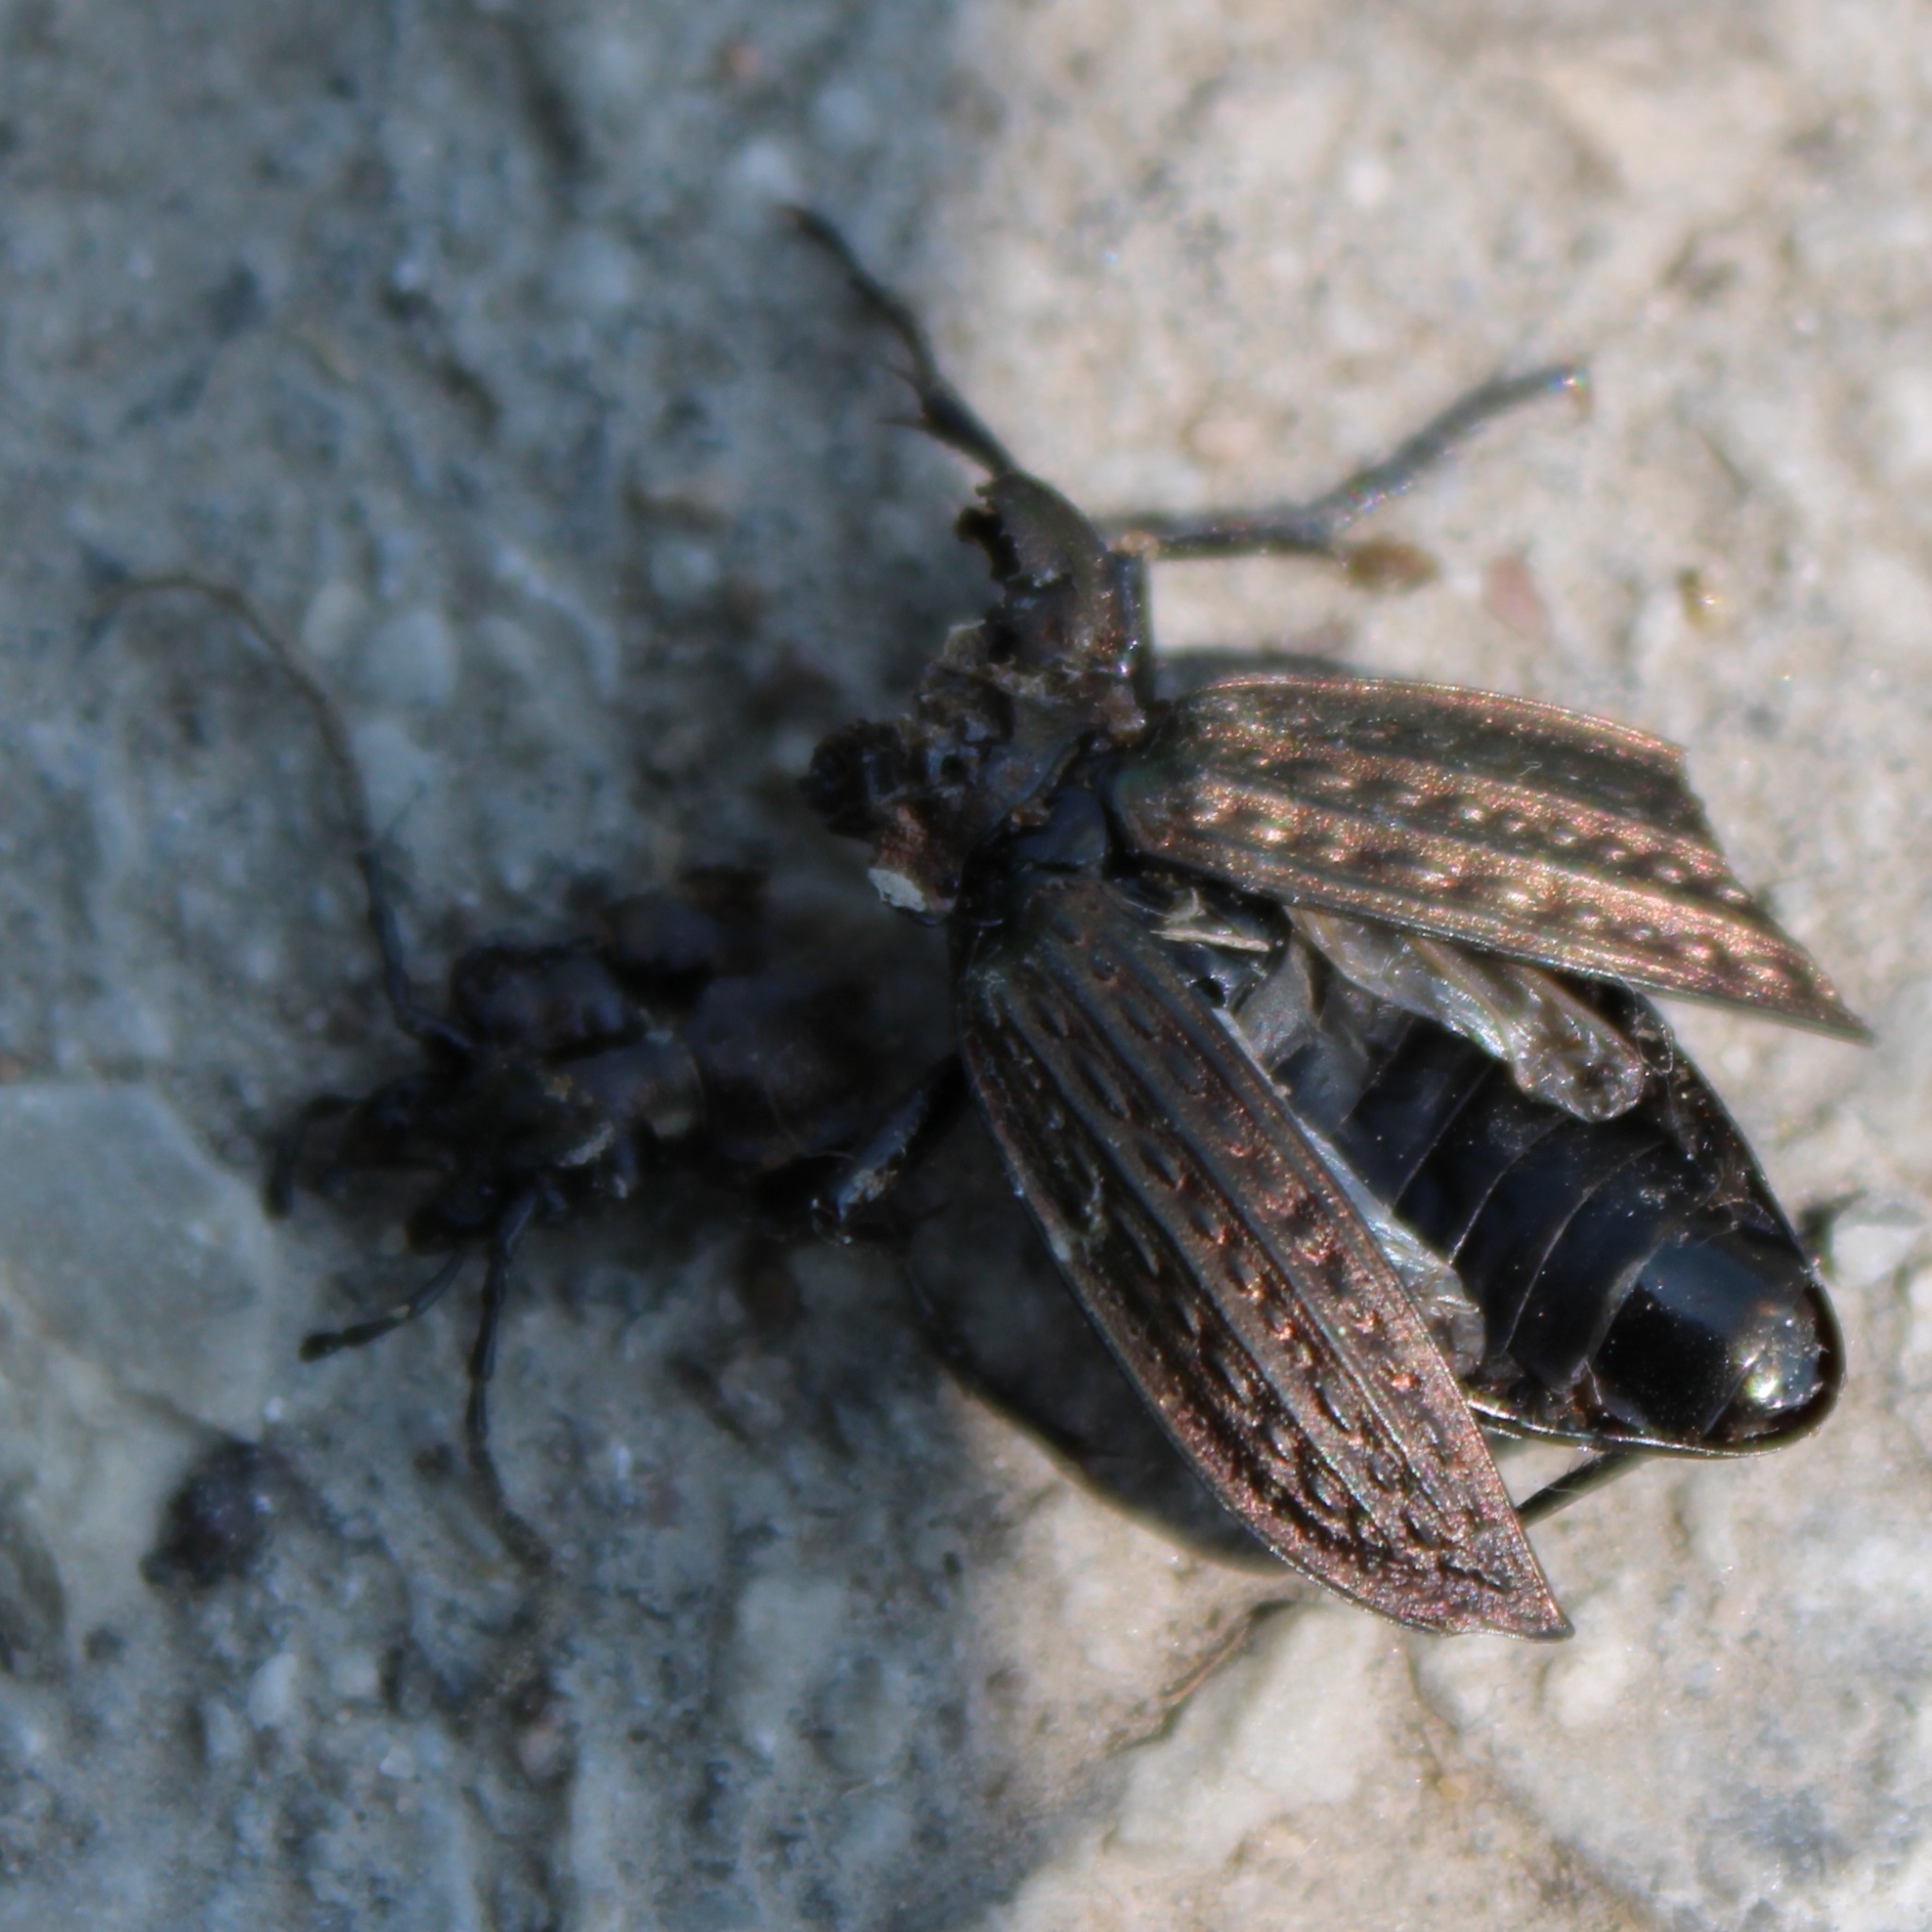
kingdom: Animalia
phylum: Arthropoda
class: Insecta
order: Coleoptera
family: Carabidae
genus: Carabus
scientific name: Carabus granulatus
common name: Granulate ground beetle
